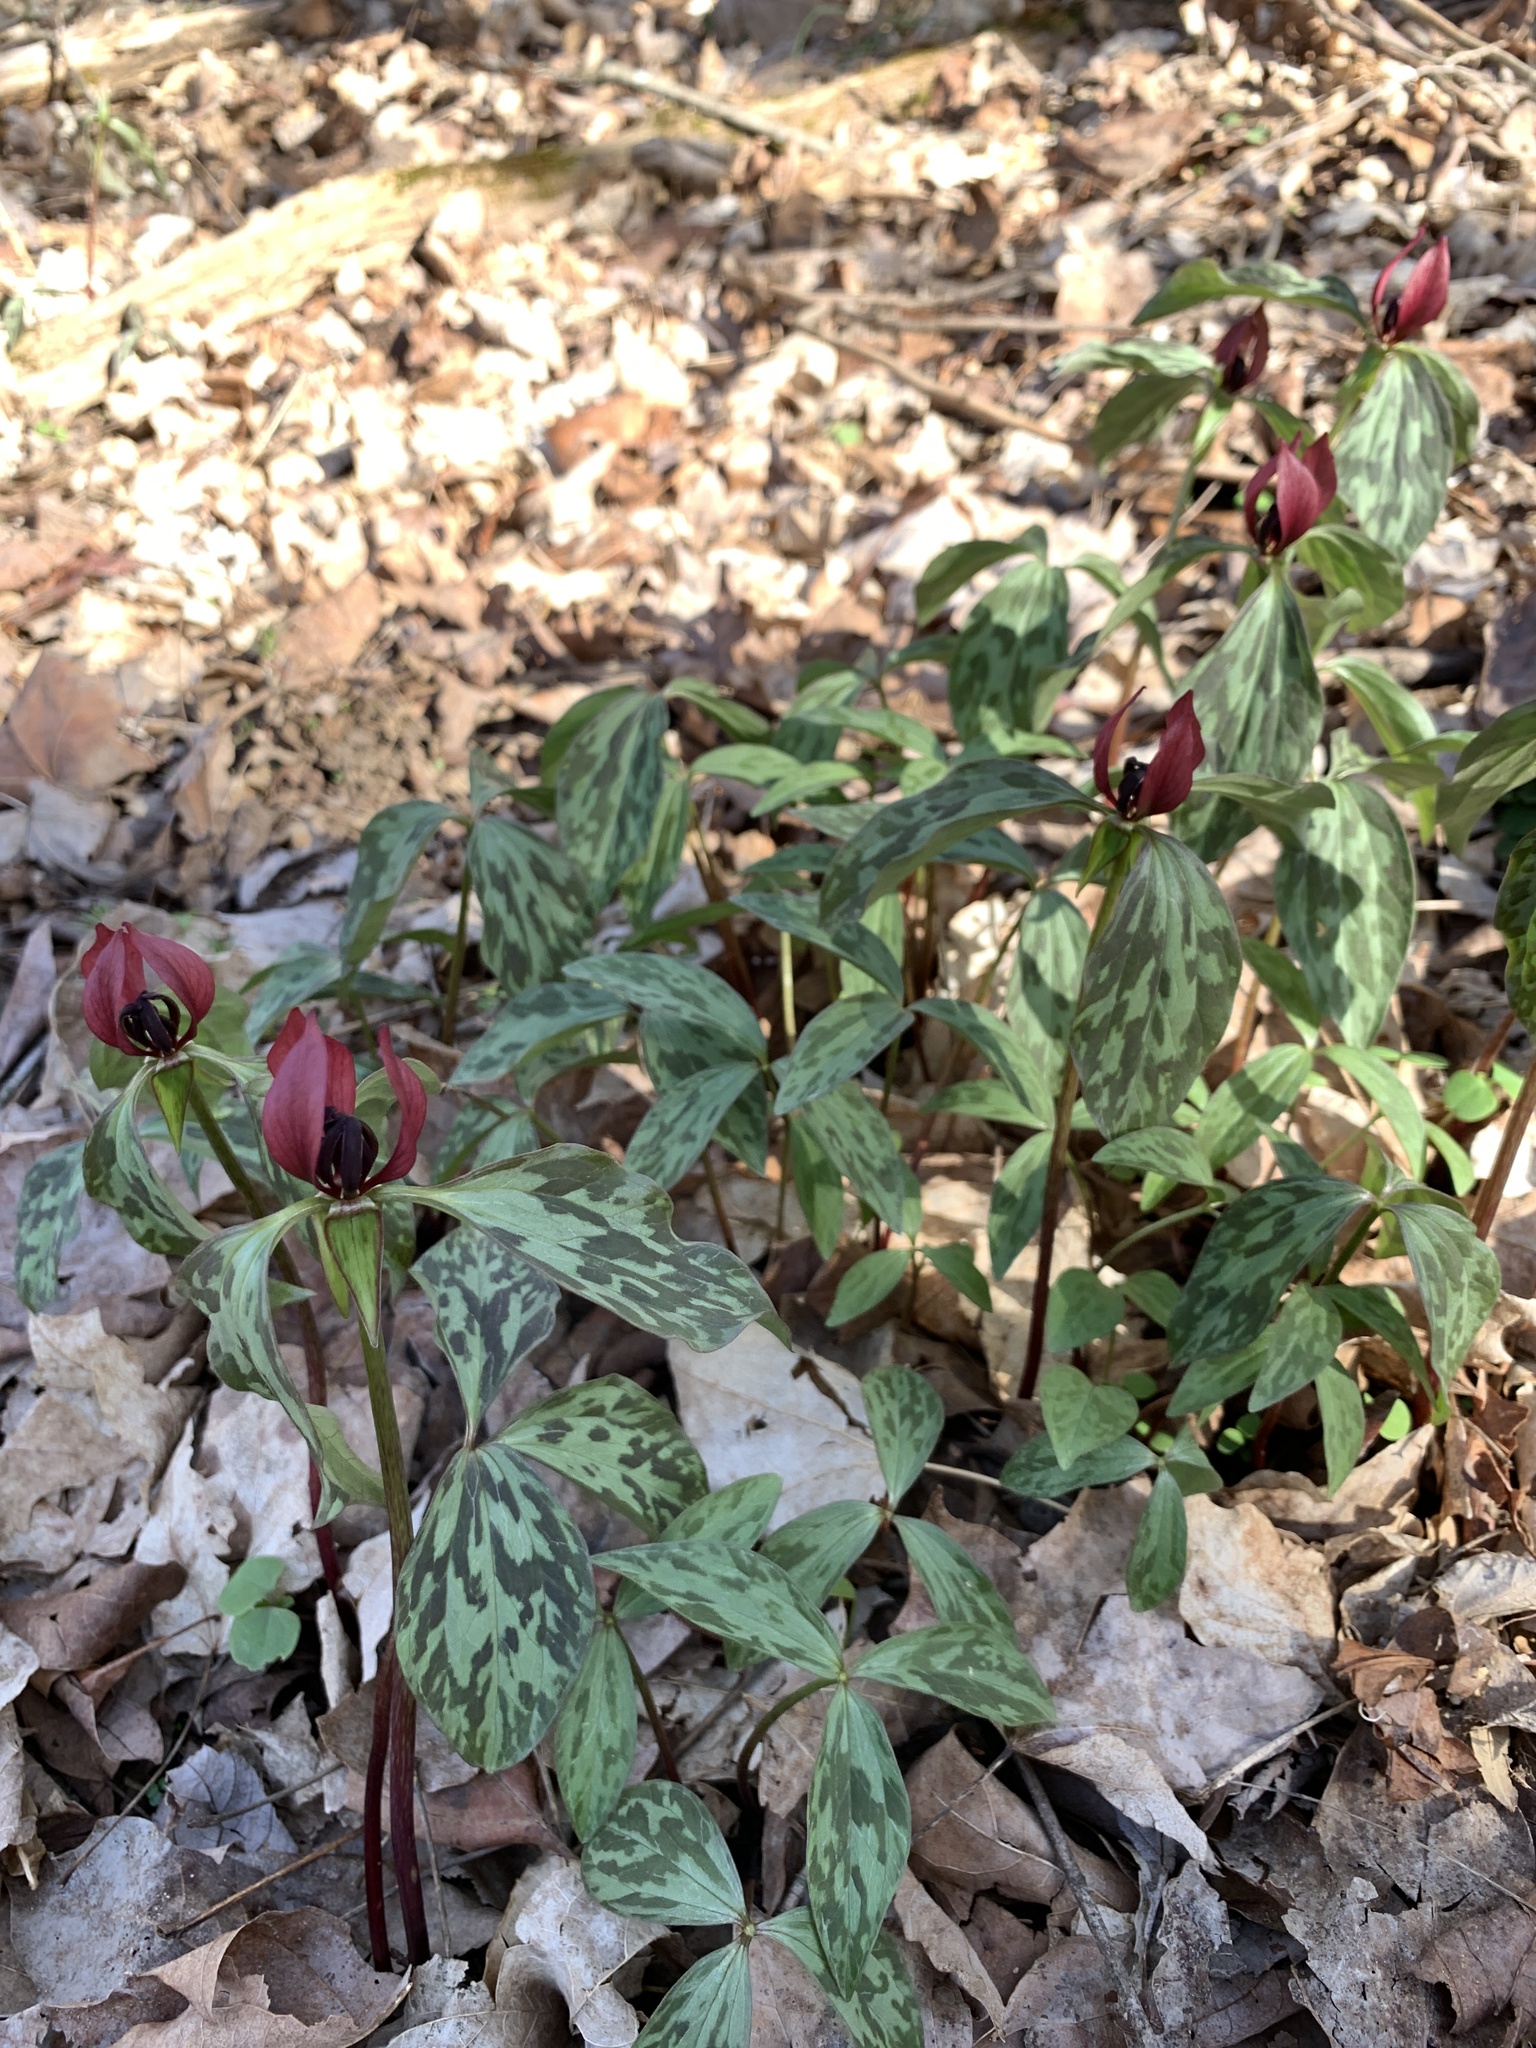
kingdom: Plantae
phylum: Tracheophyta
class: Liliopsida
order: Liliales
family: Melanthiaceae
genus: Trillium
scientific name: Trillium recurvatum
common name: Bloody butcher
